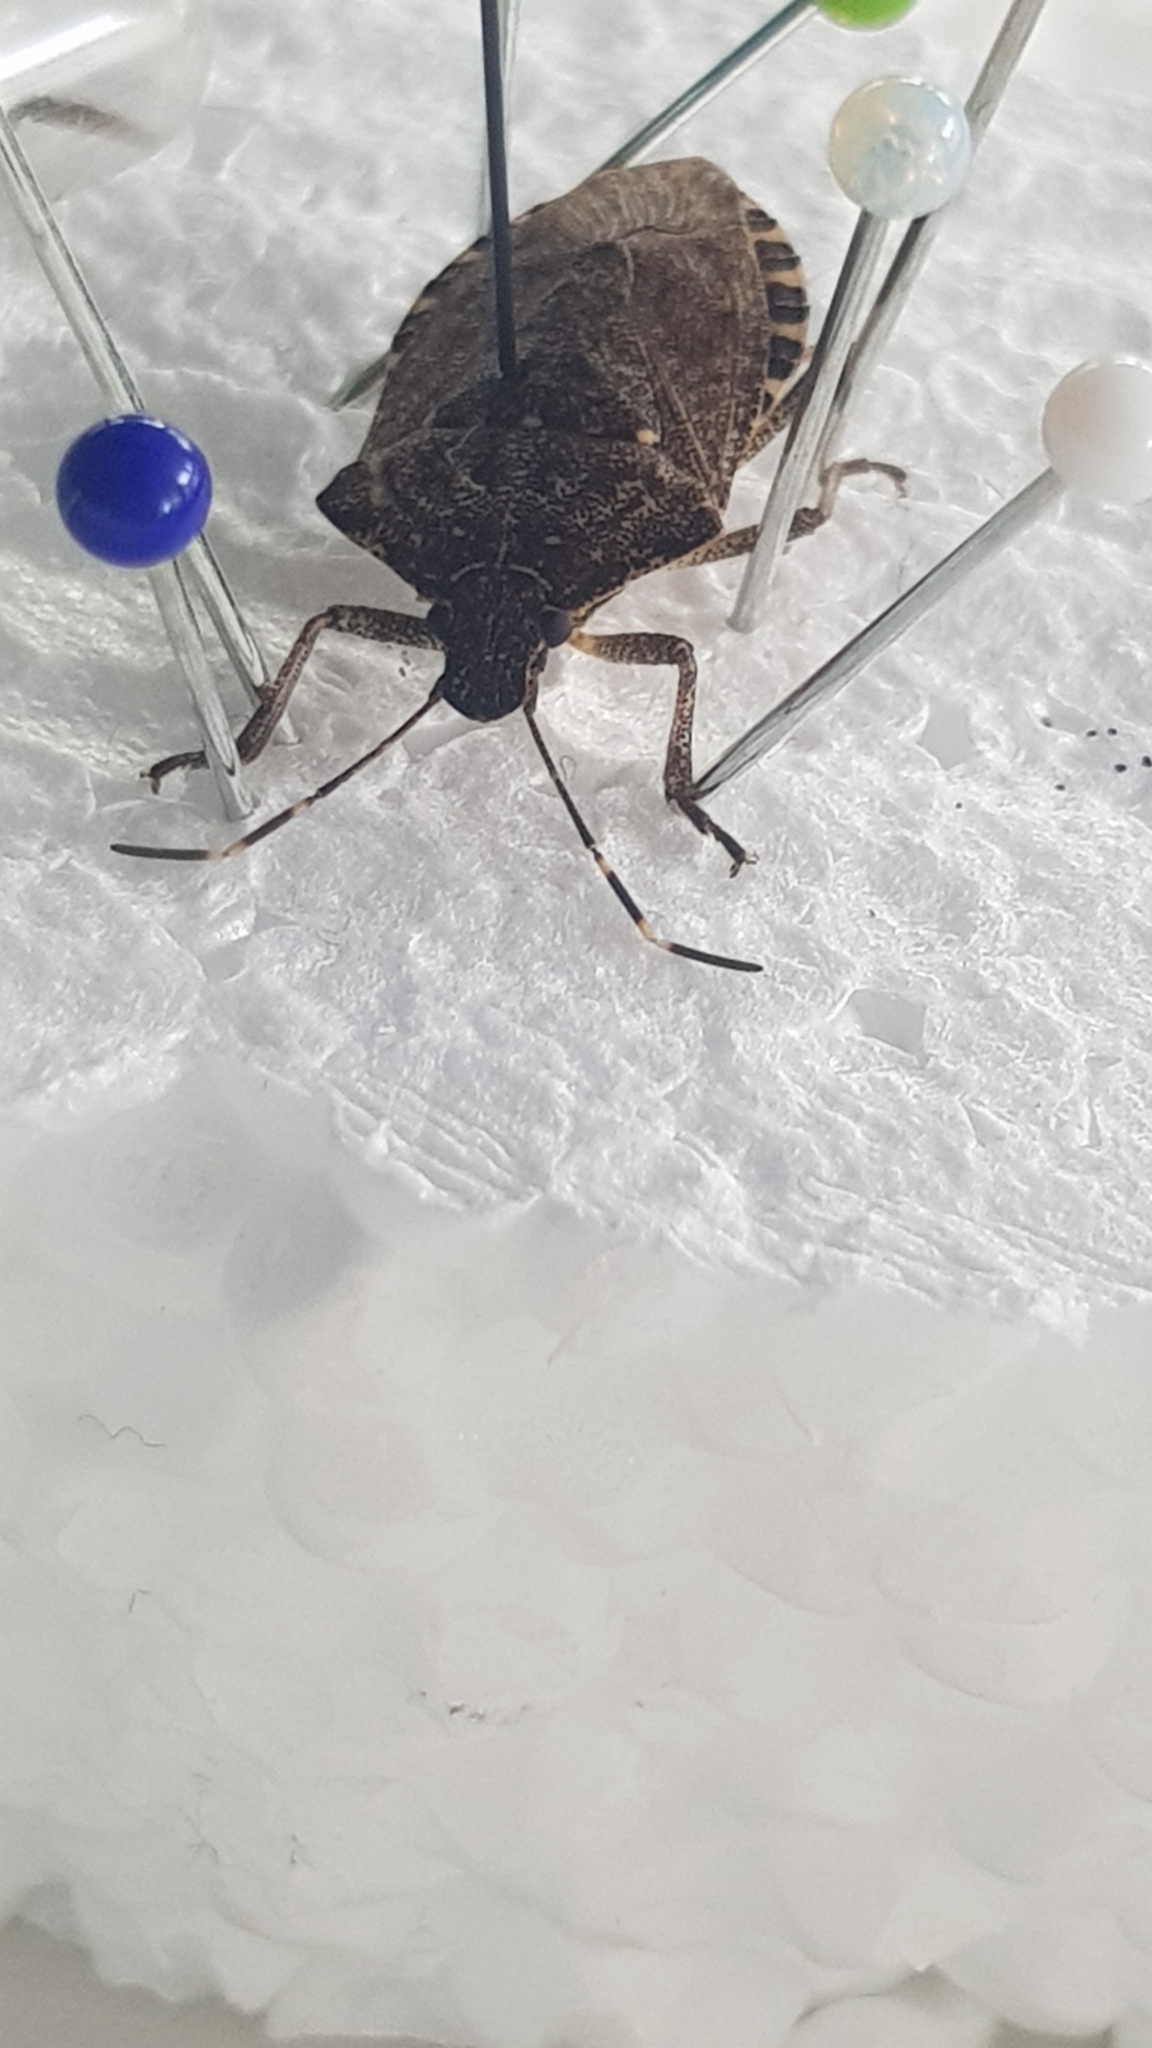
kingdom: Animalia
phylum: Arthropoda
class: Insecta
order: Hemiptera
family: Pentatomidae
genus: Halyomorpha
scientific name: Halyomorpha halys
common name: Brown marmorated stink bug
